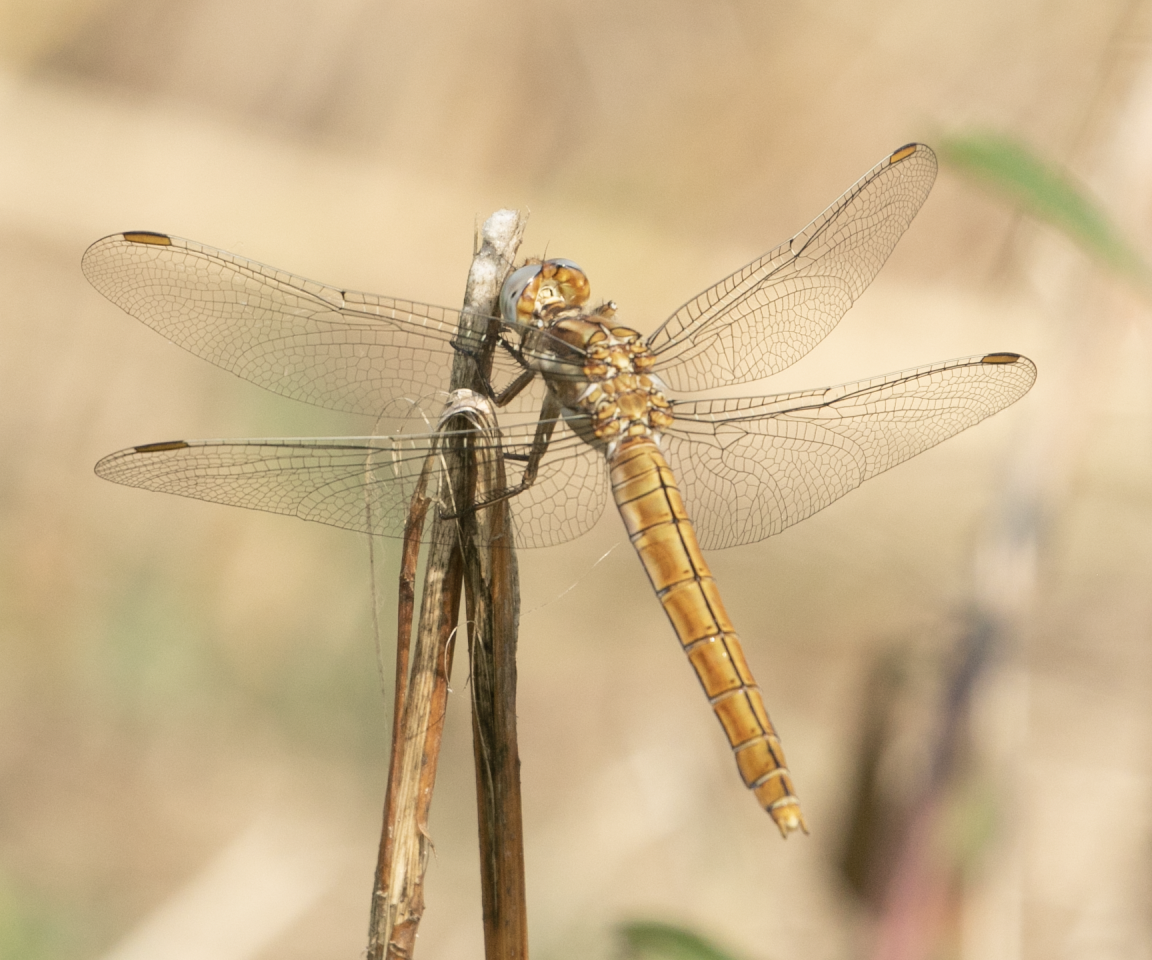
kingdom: Animalia
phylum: Arthropoda
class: Insecta
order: Odonata
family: Libellulidae
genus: Orthetrum
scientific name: Orthetrum brunneum
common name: Southern skimmer
